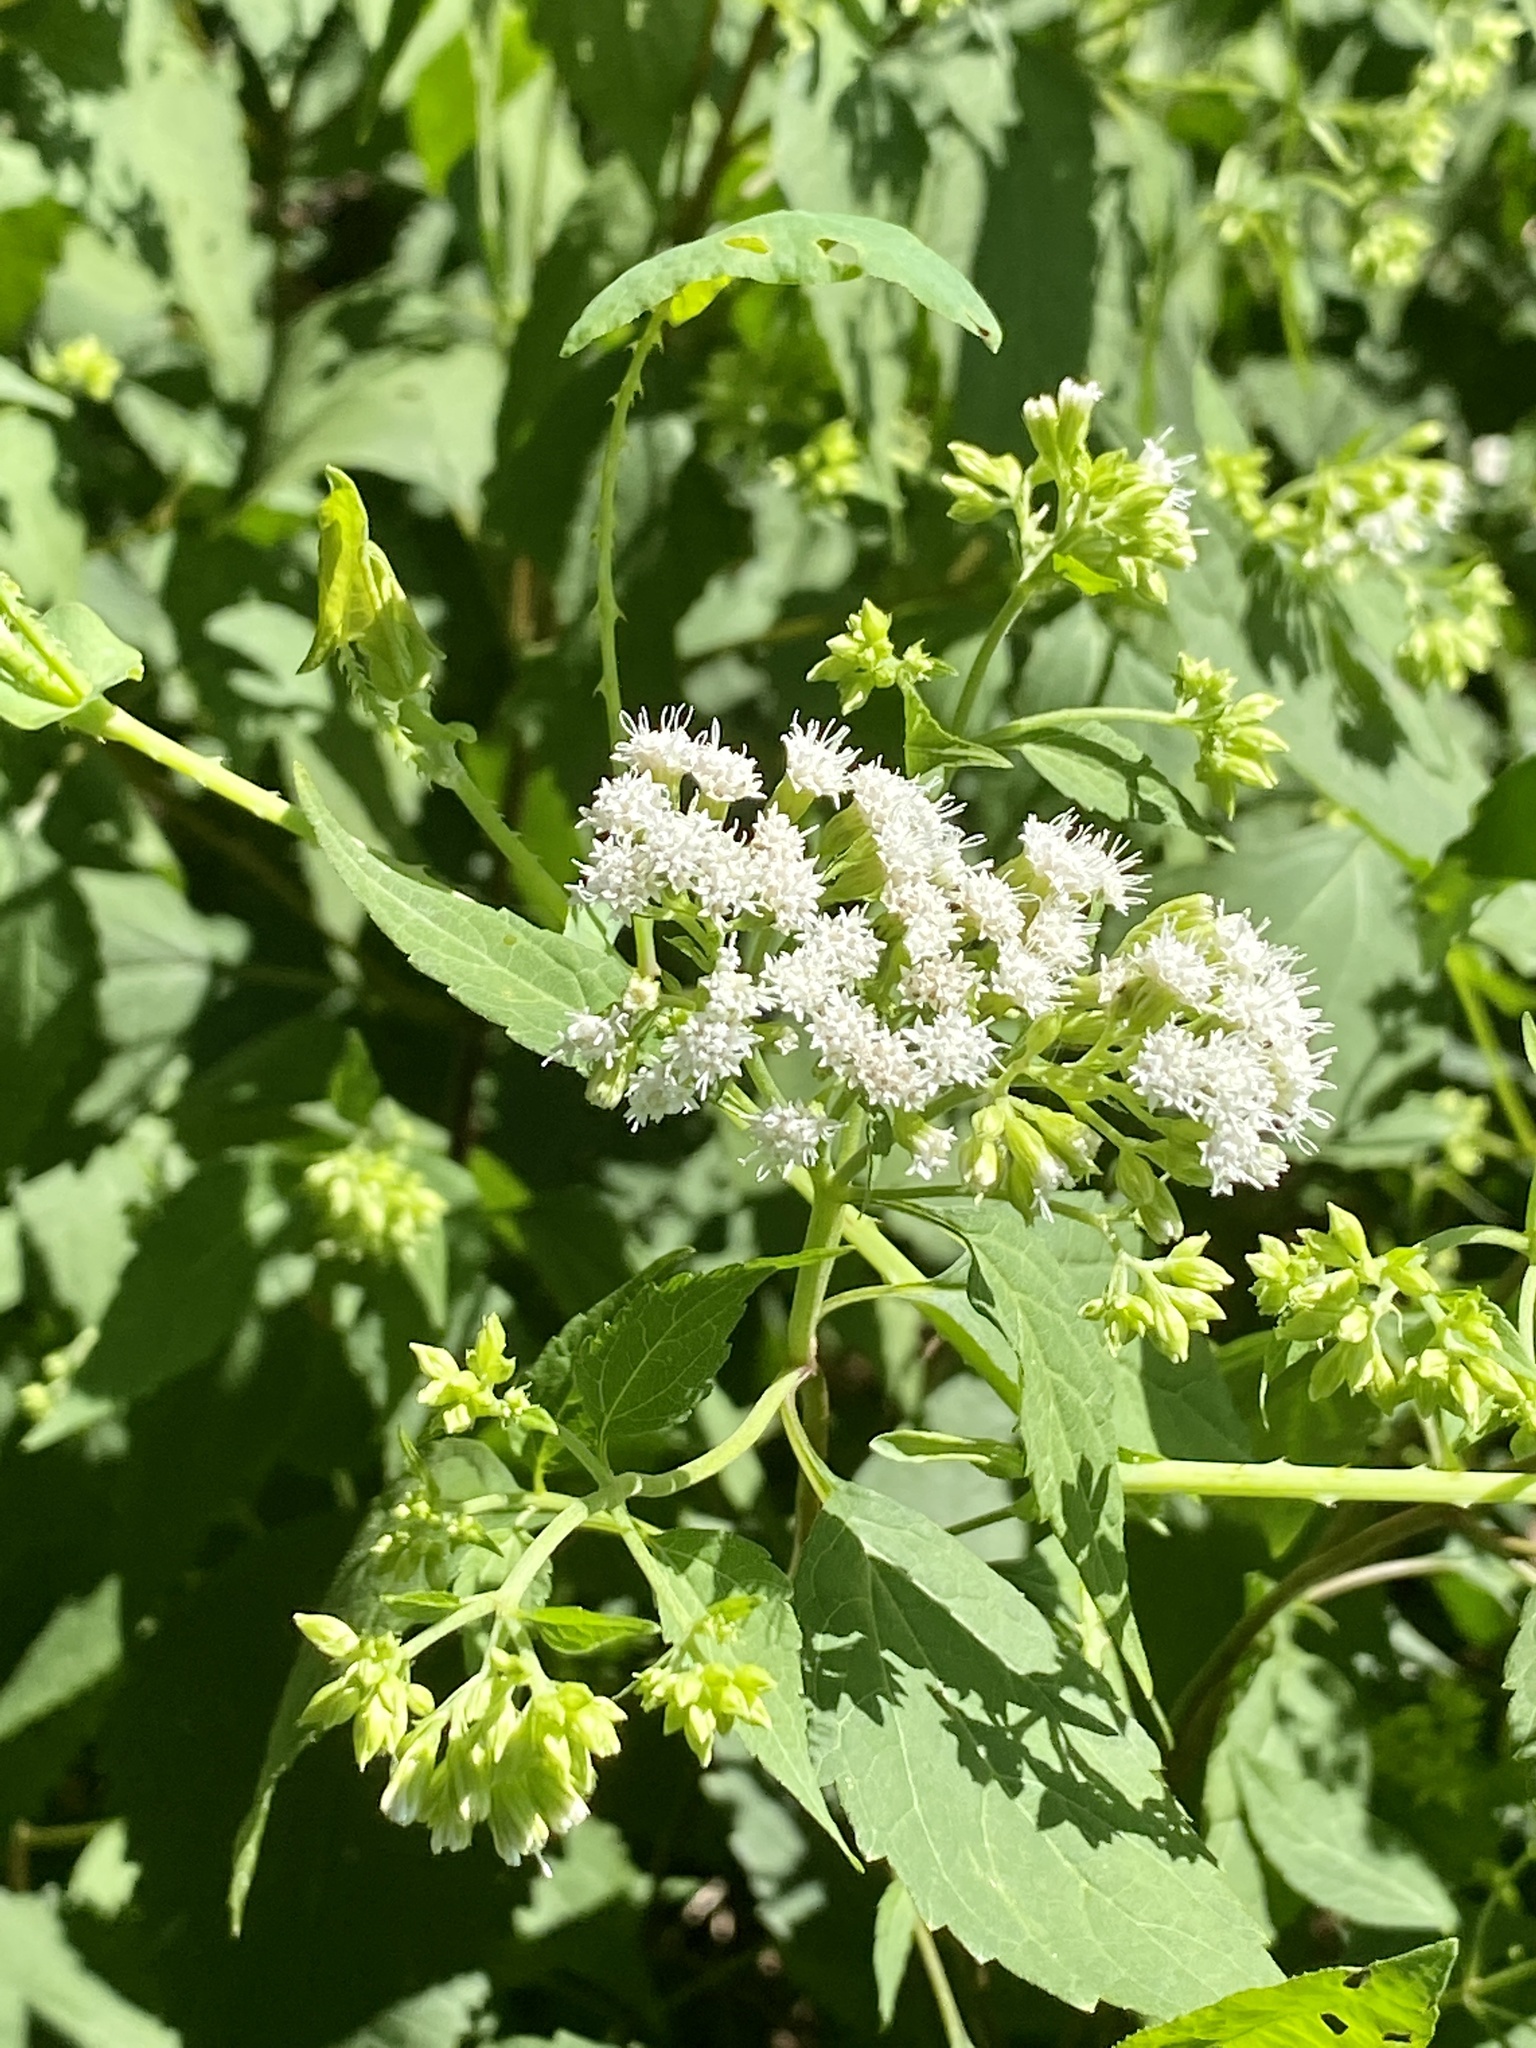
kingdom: Plantae
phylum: Tracheophyta
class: Magnoliopsida
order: Asterales
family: Asteraceae
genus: Ageratina
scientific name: Ageratina altissima
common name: White snakeroot
